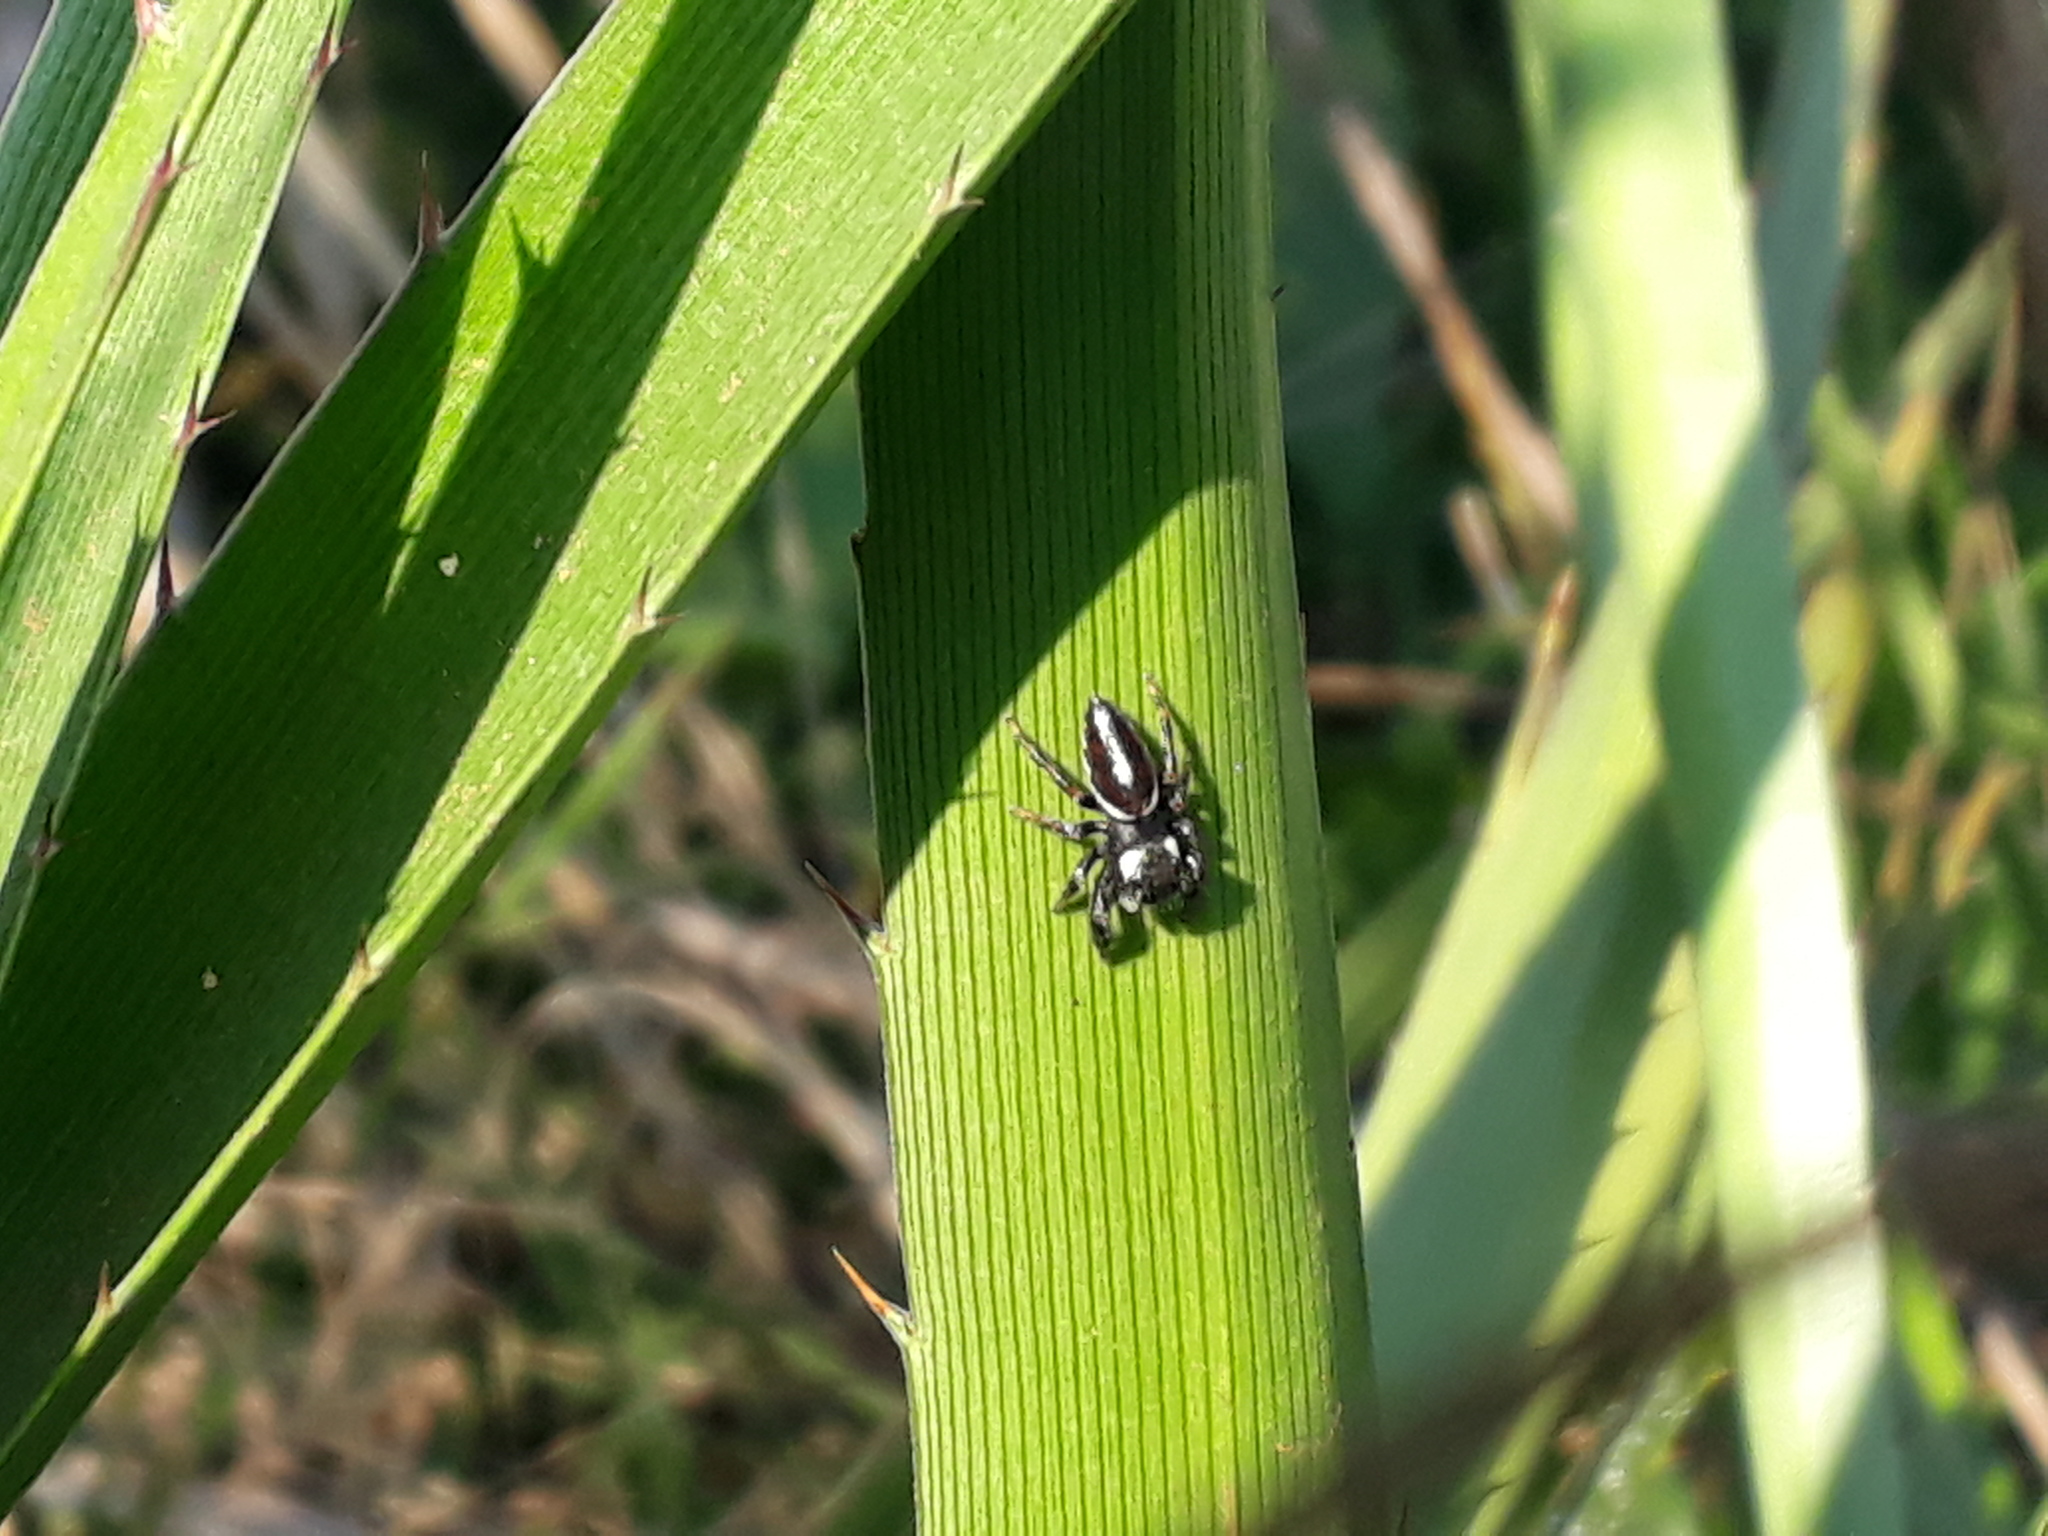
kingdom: Animalia
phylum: Arthropoda
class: Arachnida
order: Araneae
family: Salticidae
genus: Dendryphantes
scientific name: Dendryphantes mordax
